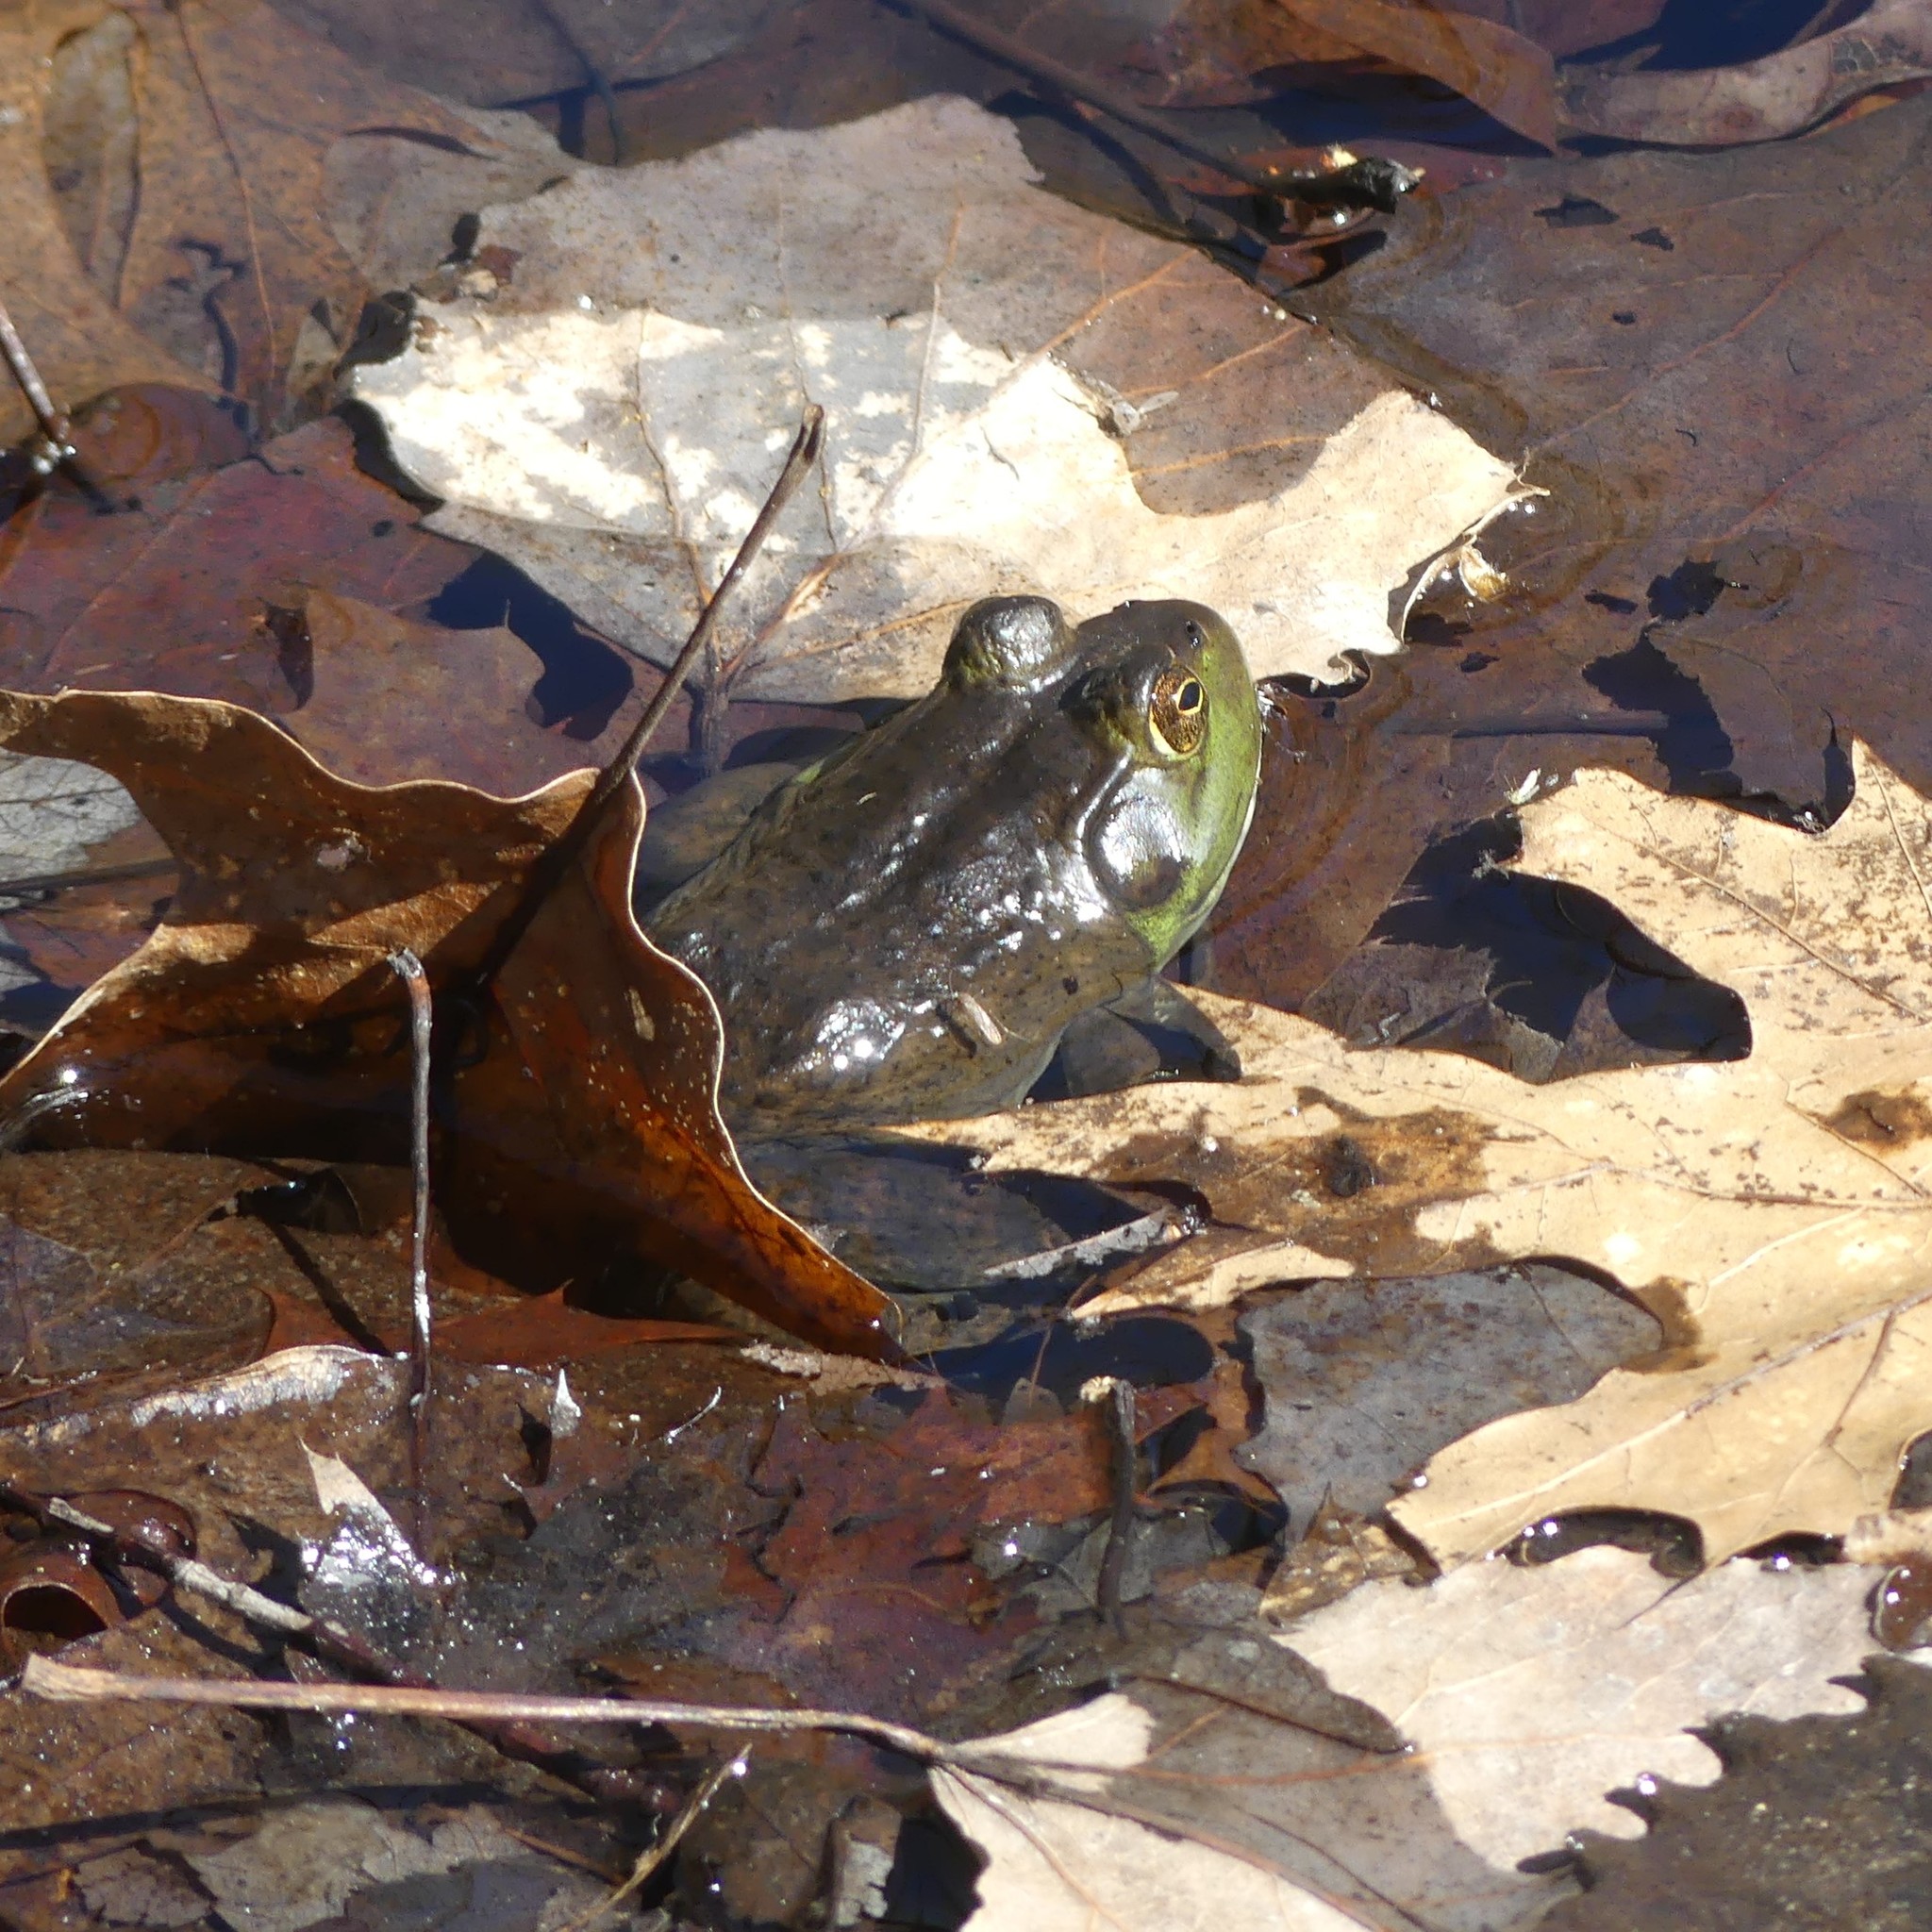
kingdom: Animalia
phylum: Chordata
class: Amphibia
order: Anura
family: Ranidae
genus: Lithobates
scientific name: Lithobates catesbeianus
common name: American bullfrog
